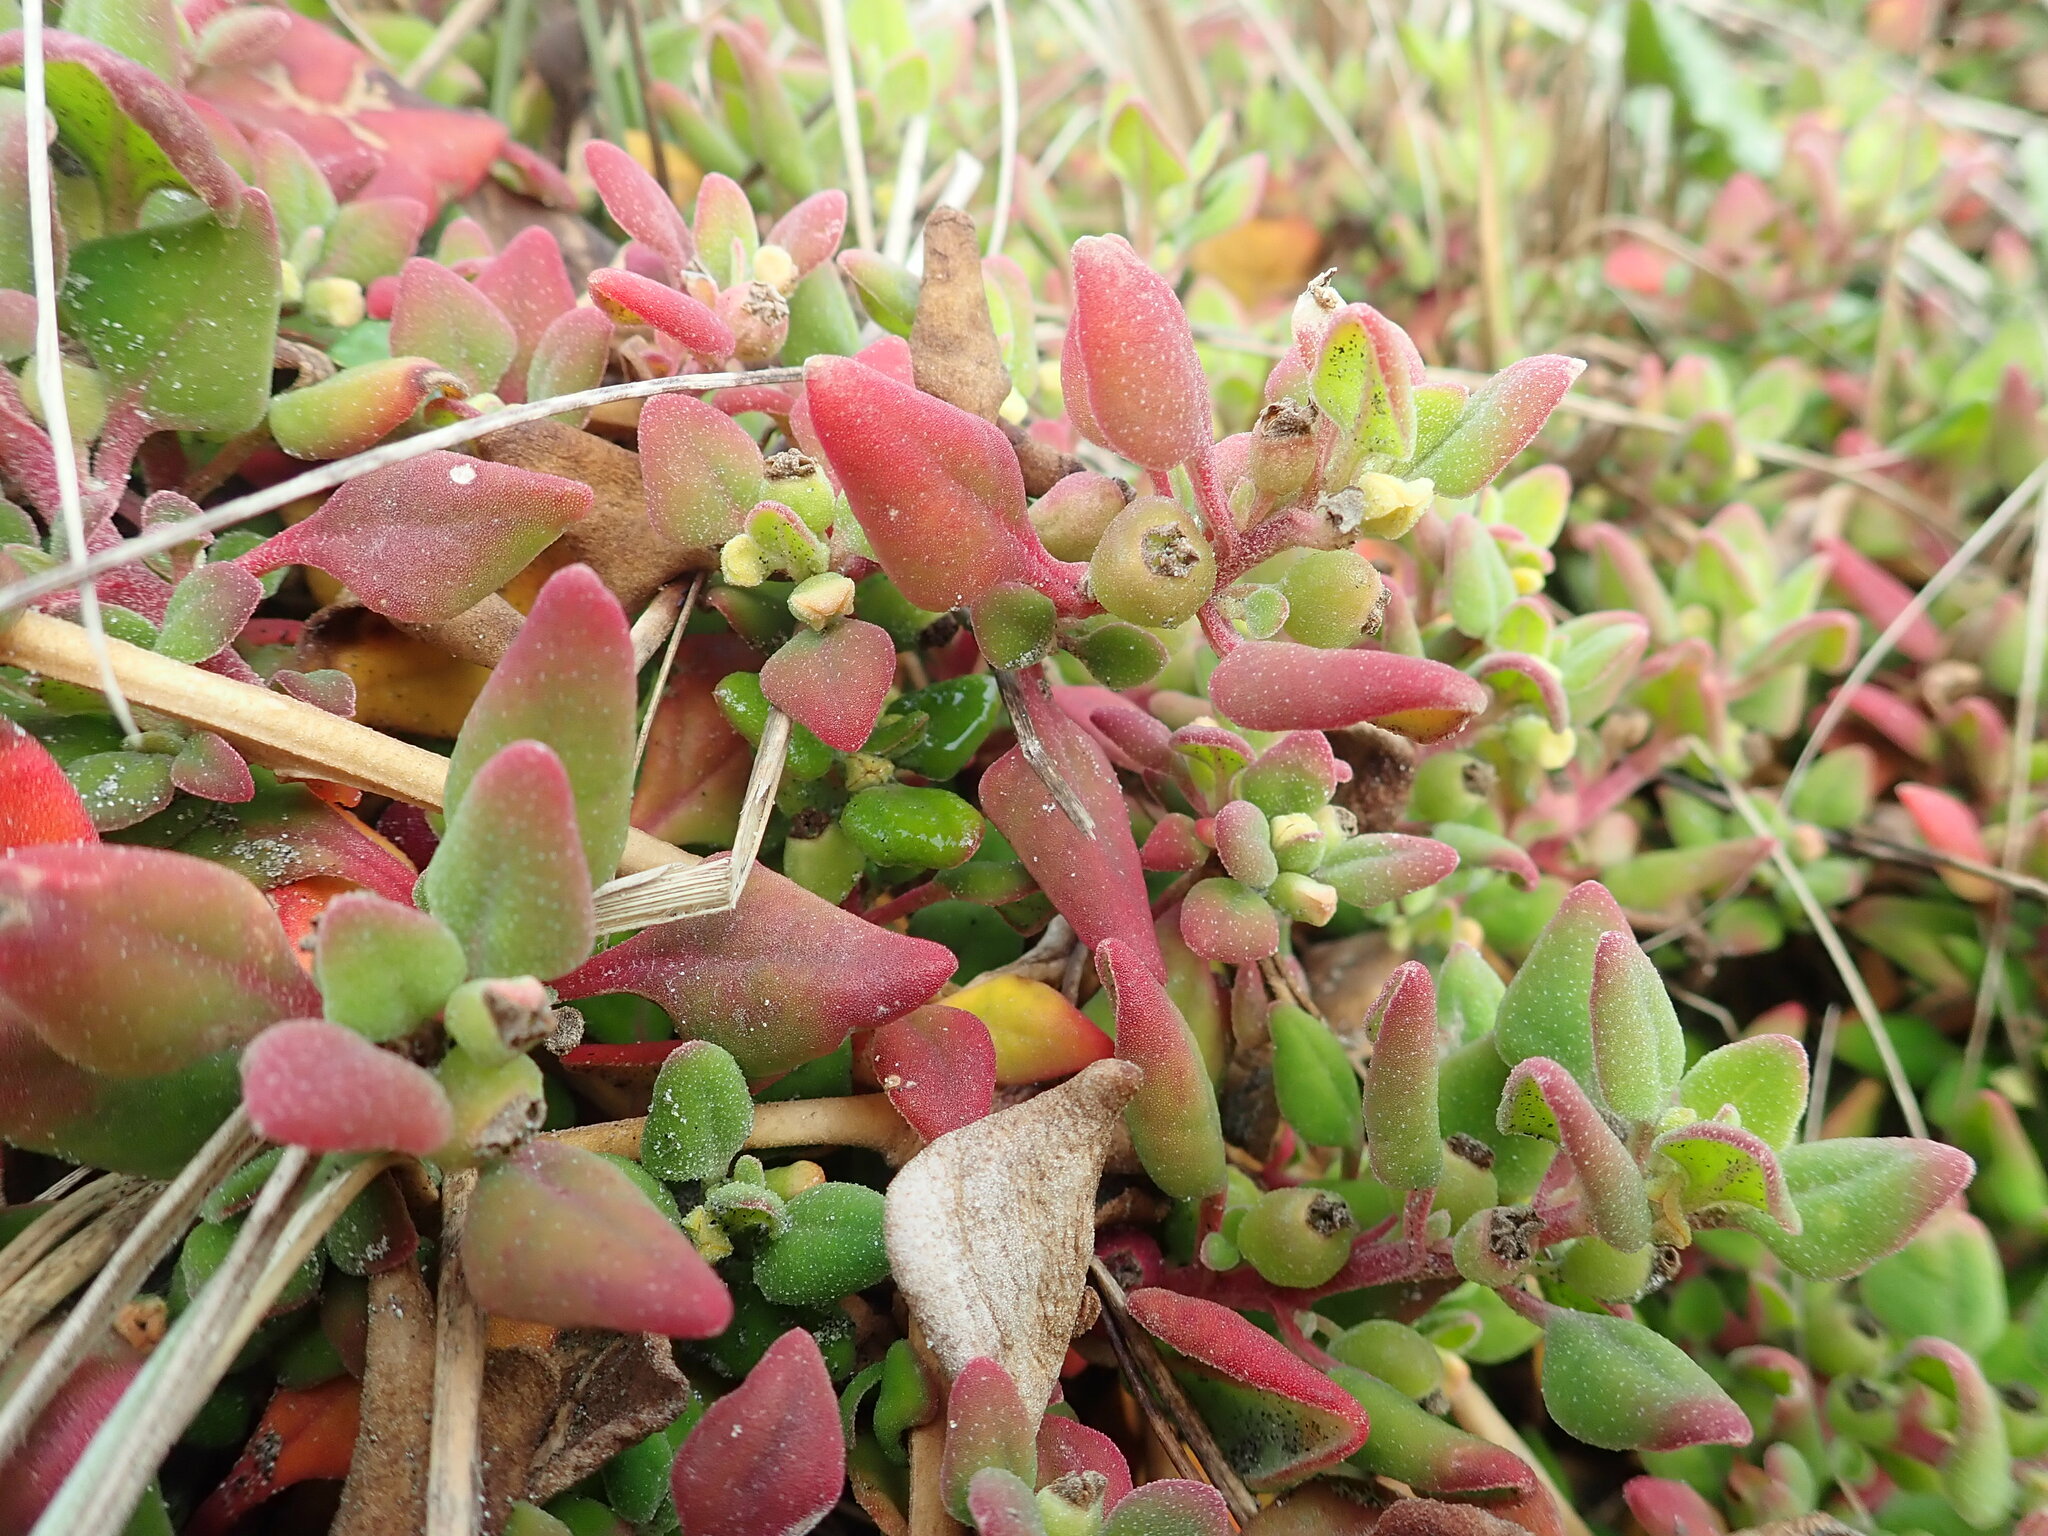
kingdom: Plantae
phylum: Tracheophyta
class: Magnoliopsida
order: Caryophyllales
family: Aizoaceae
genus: Tetragonia
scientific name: Tetragonia implexicoma
